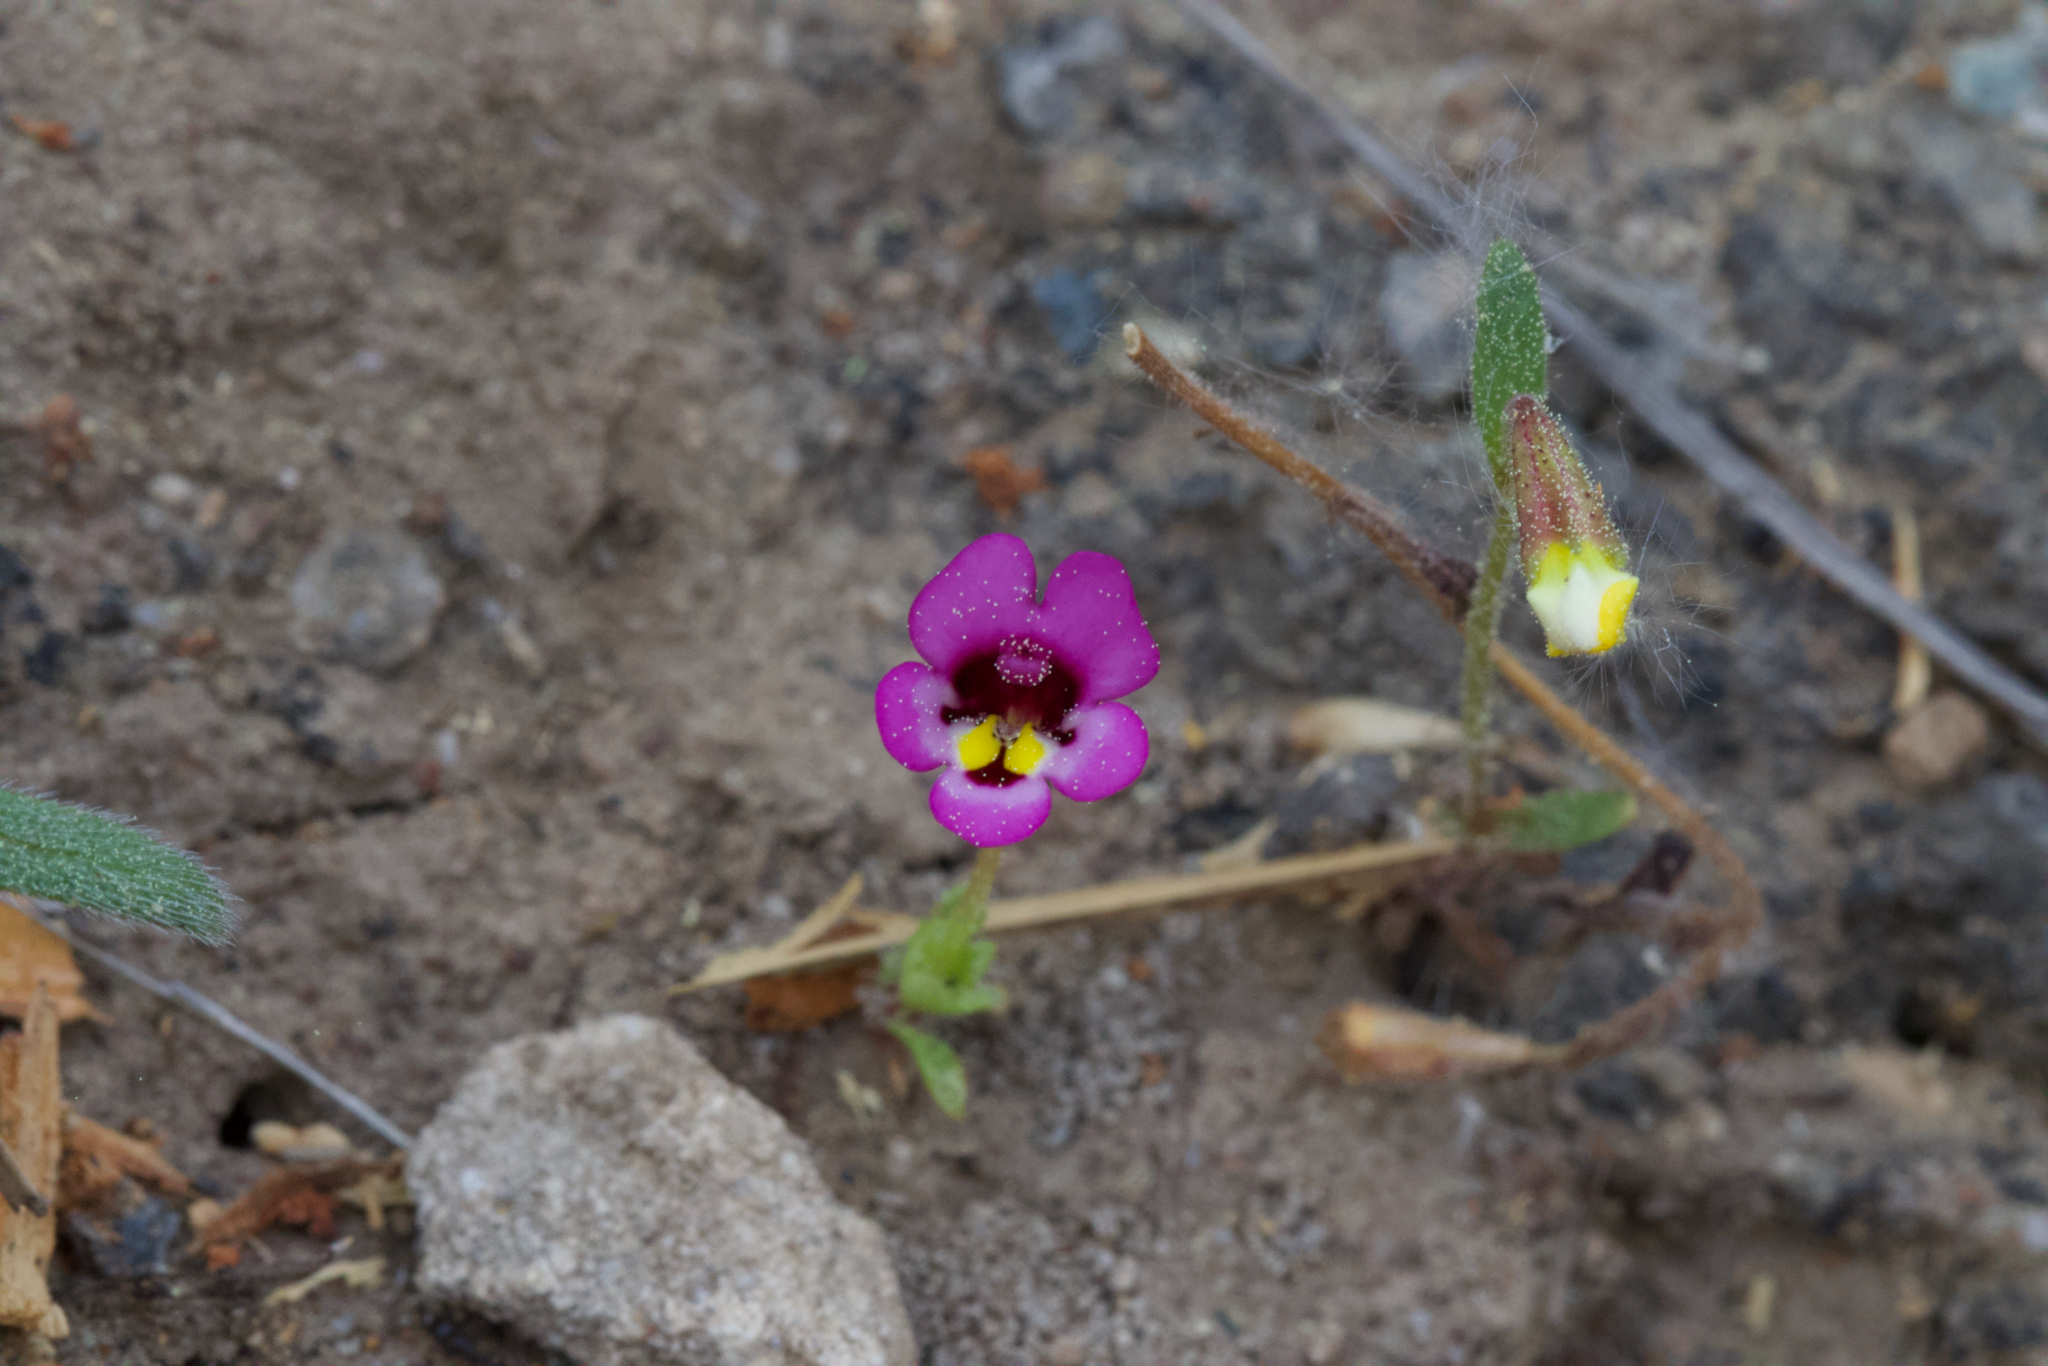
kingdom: Plantae
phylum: Tracheophyta
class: Magnoliopsida
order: Lamiales
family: Phrymaceae
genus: Diplacus
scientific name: Diplacus angustatus
